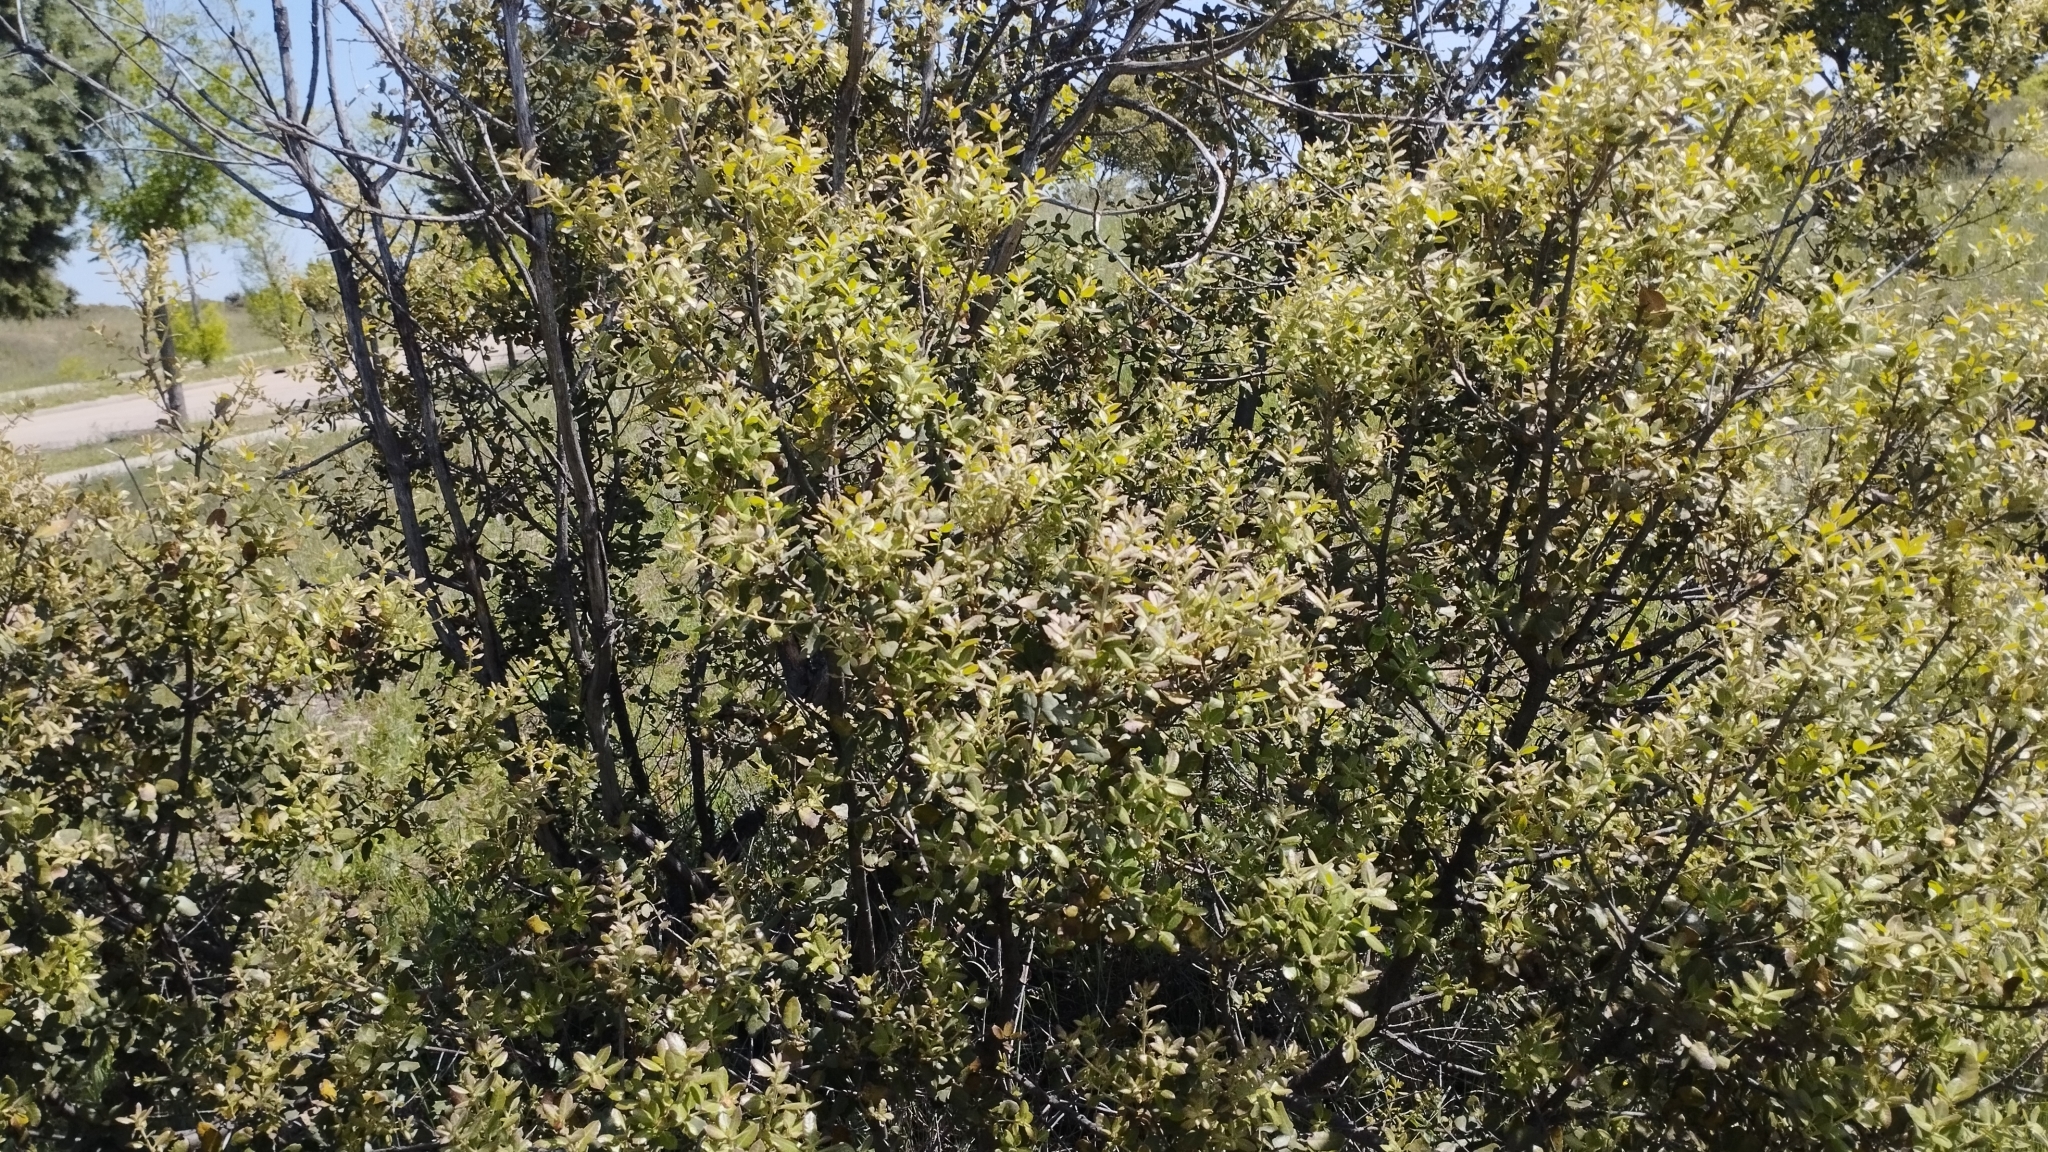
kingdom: Plantae
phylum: Tracheophyta
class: Magnoliopsida
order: Fagales
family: Fagaceae
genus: Quercus
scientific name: Quercus rotundifolia
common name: Holm oak
